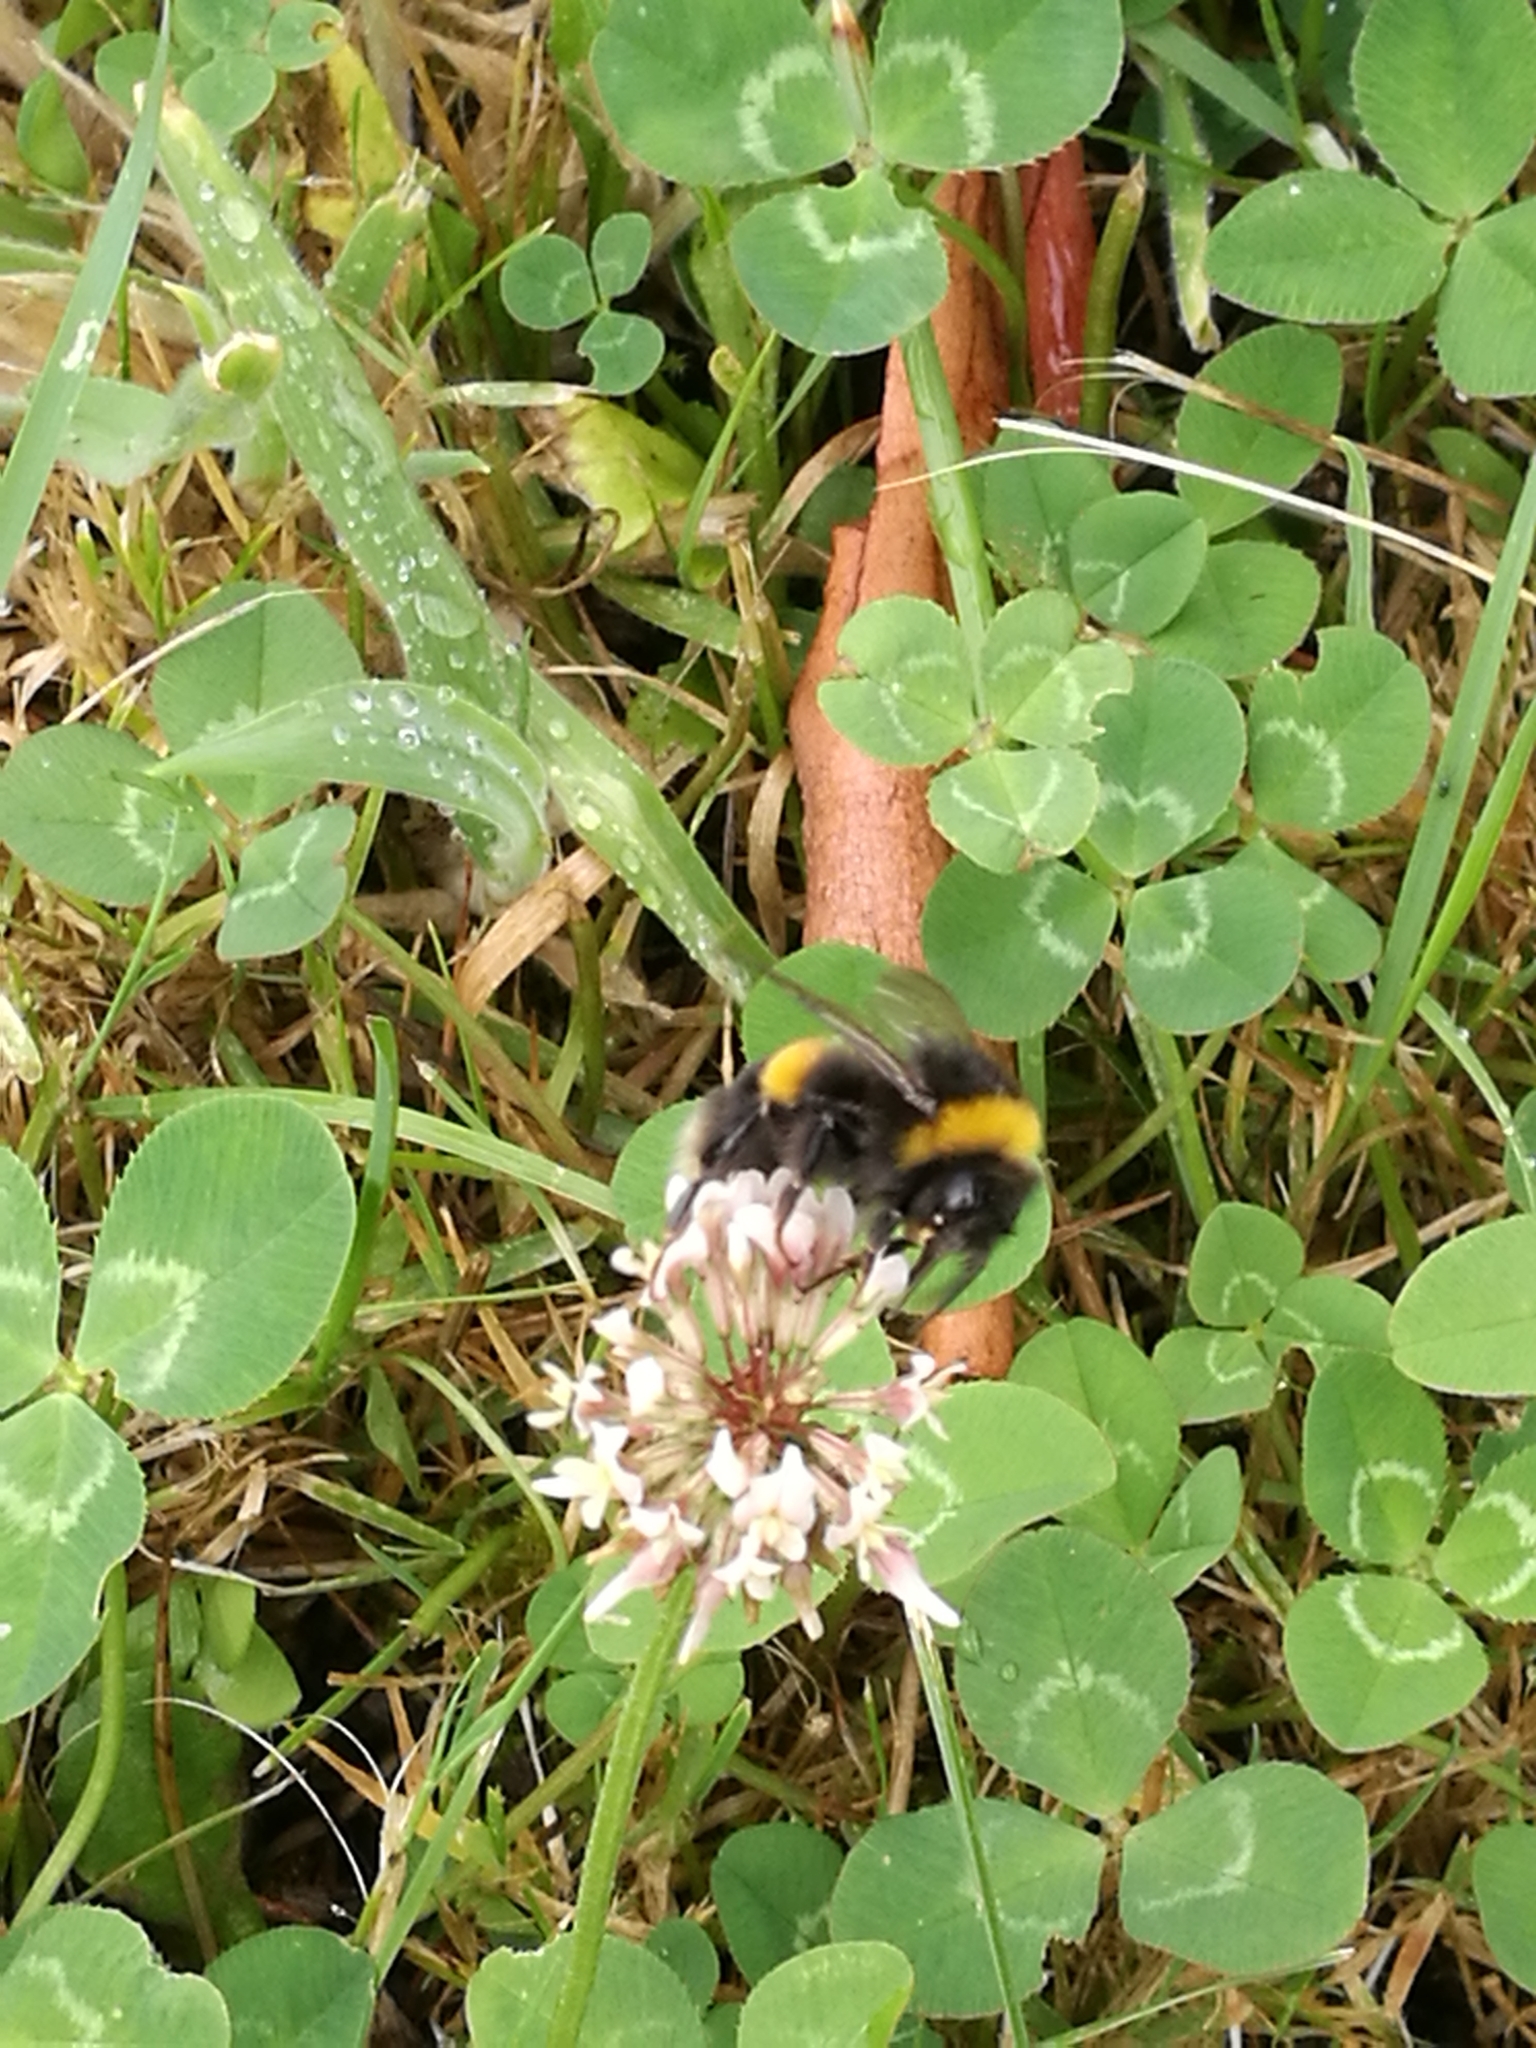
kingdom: Plantae
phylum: Tracheophyta
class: Magnoliopsida
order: Fabales
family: Fabaceae
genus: Trifolium
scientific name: Trifolium repens
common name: White clover
